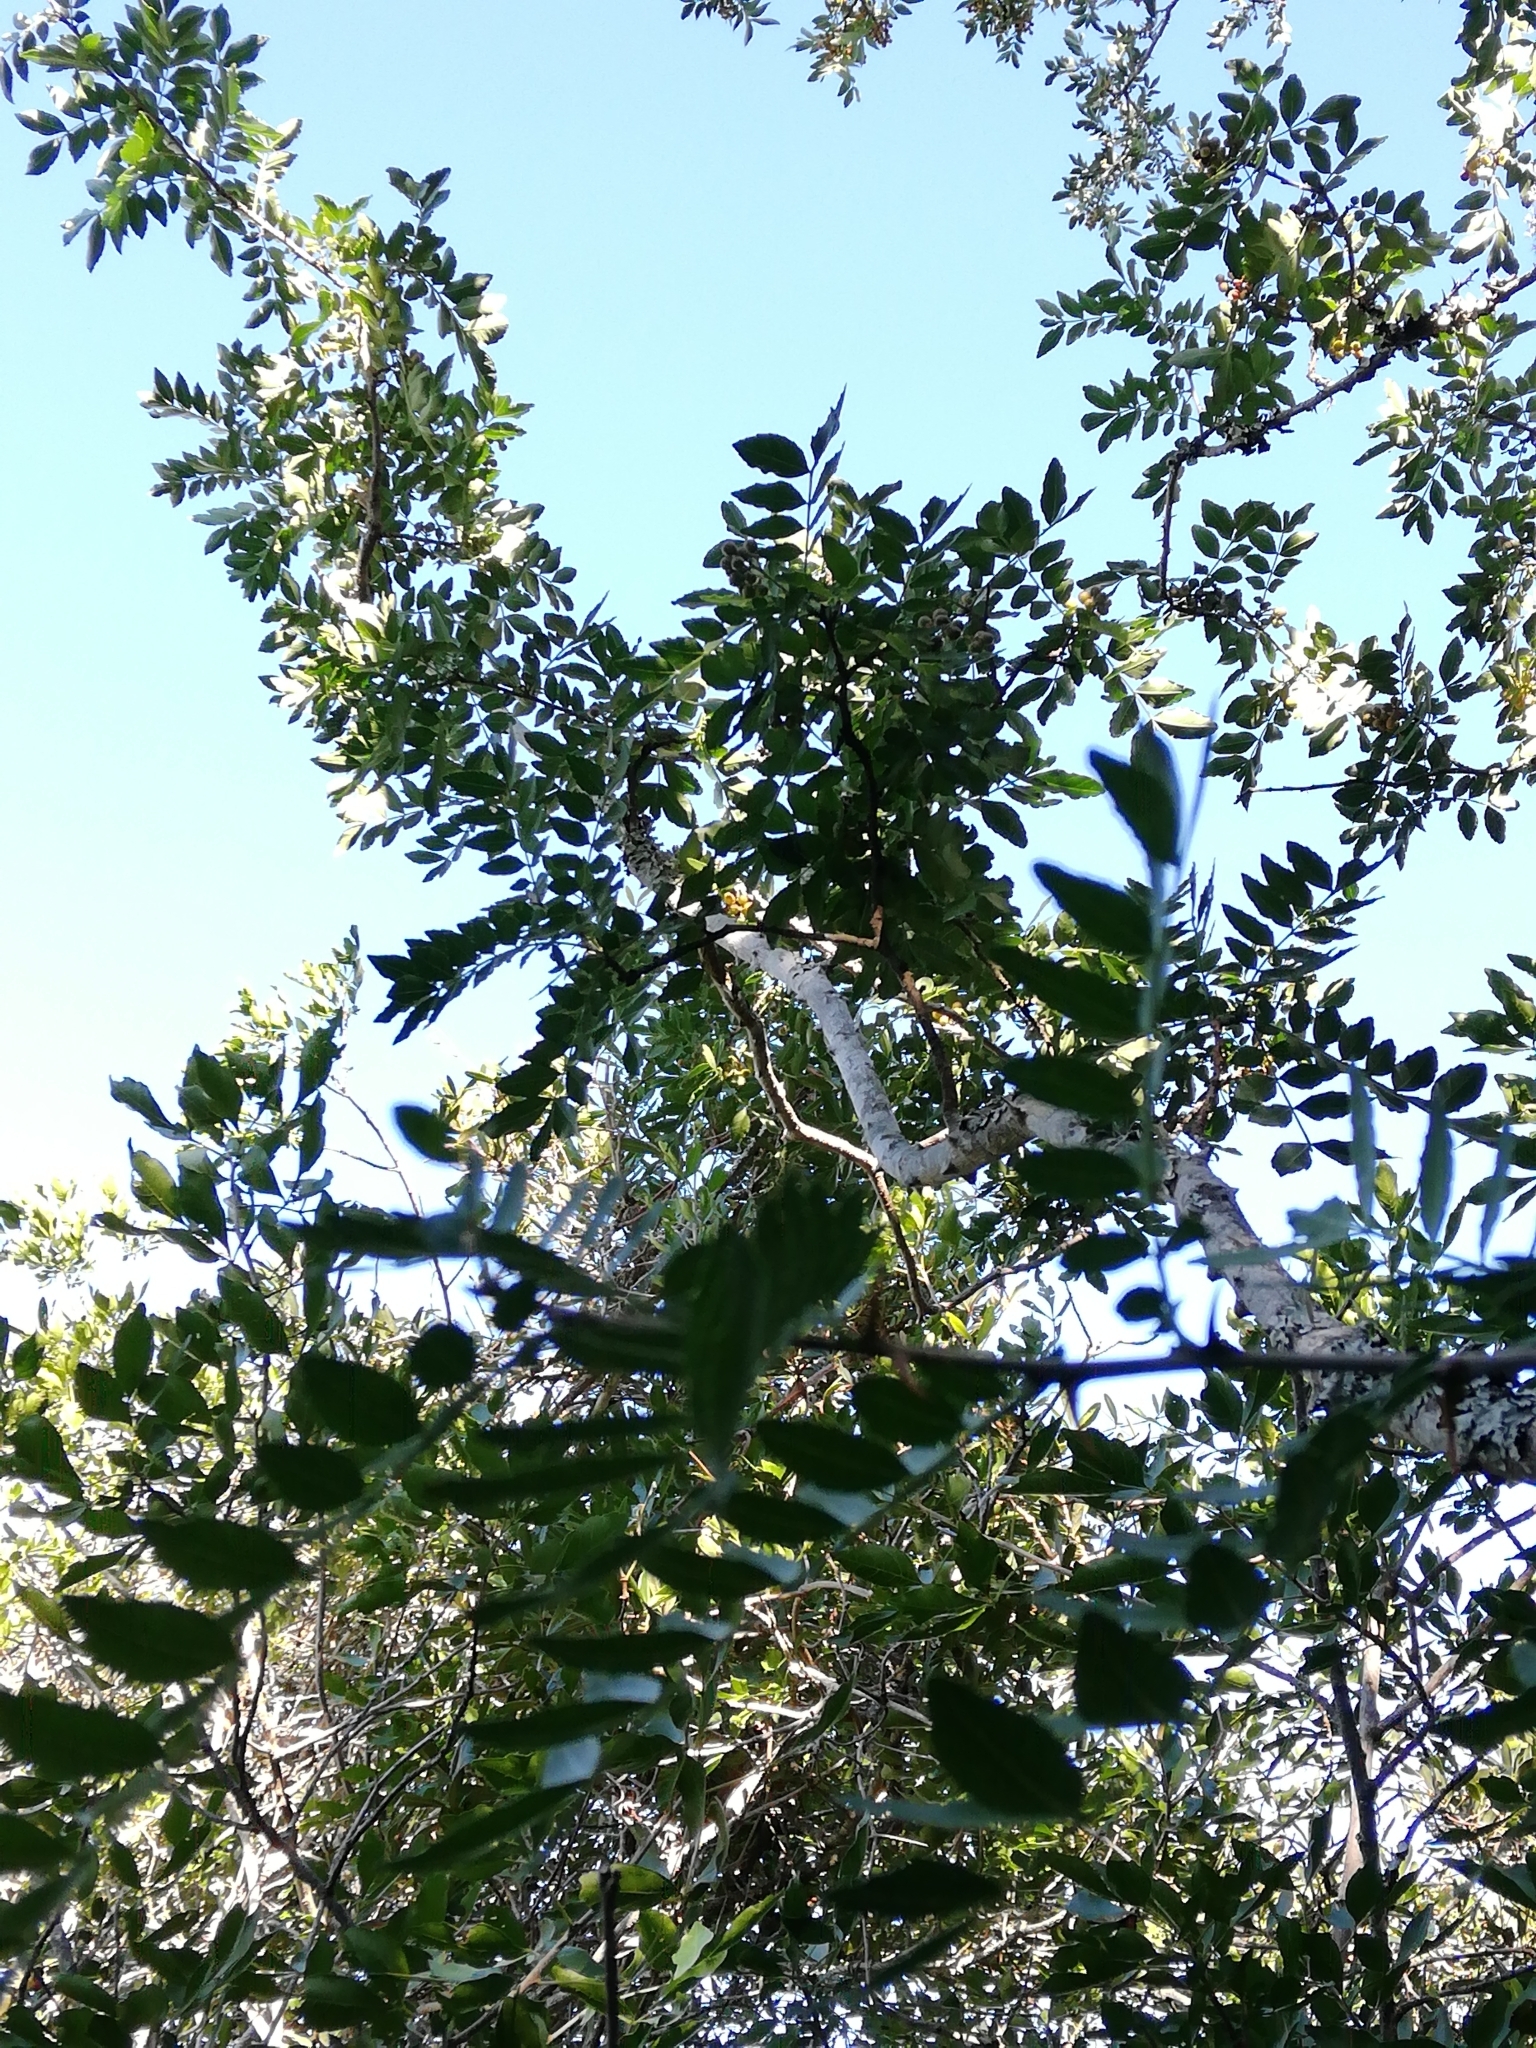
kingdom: Plantae
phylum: Tracheophyta
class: Magnoliopsida
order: Sapindales
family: Rutaceae
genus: Zanthoxylum
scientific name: Zanthoxylum capense
